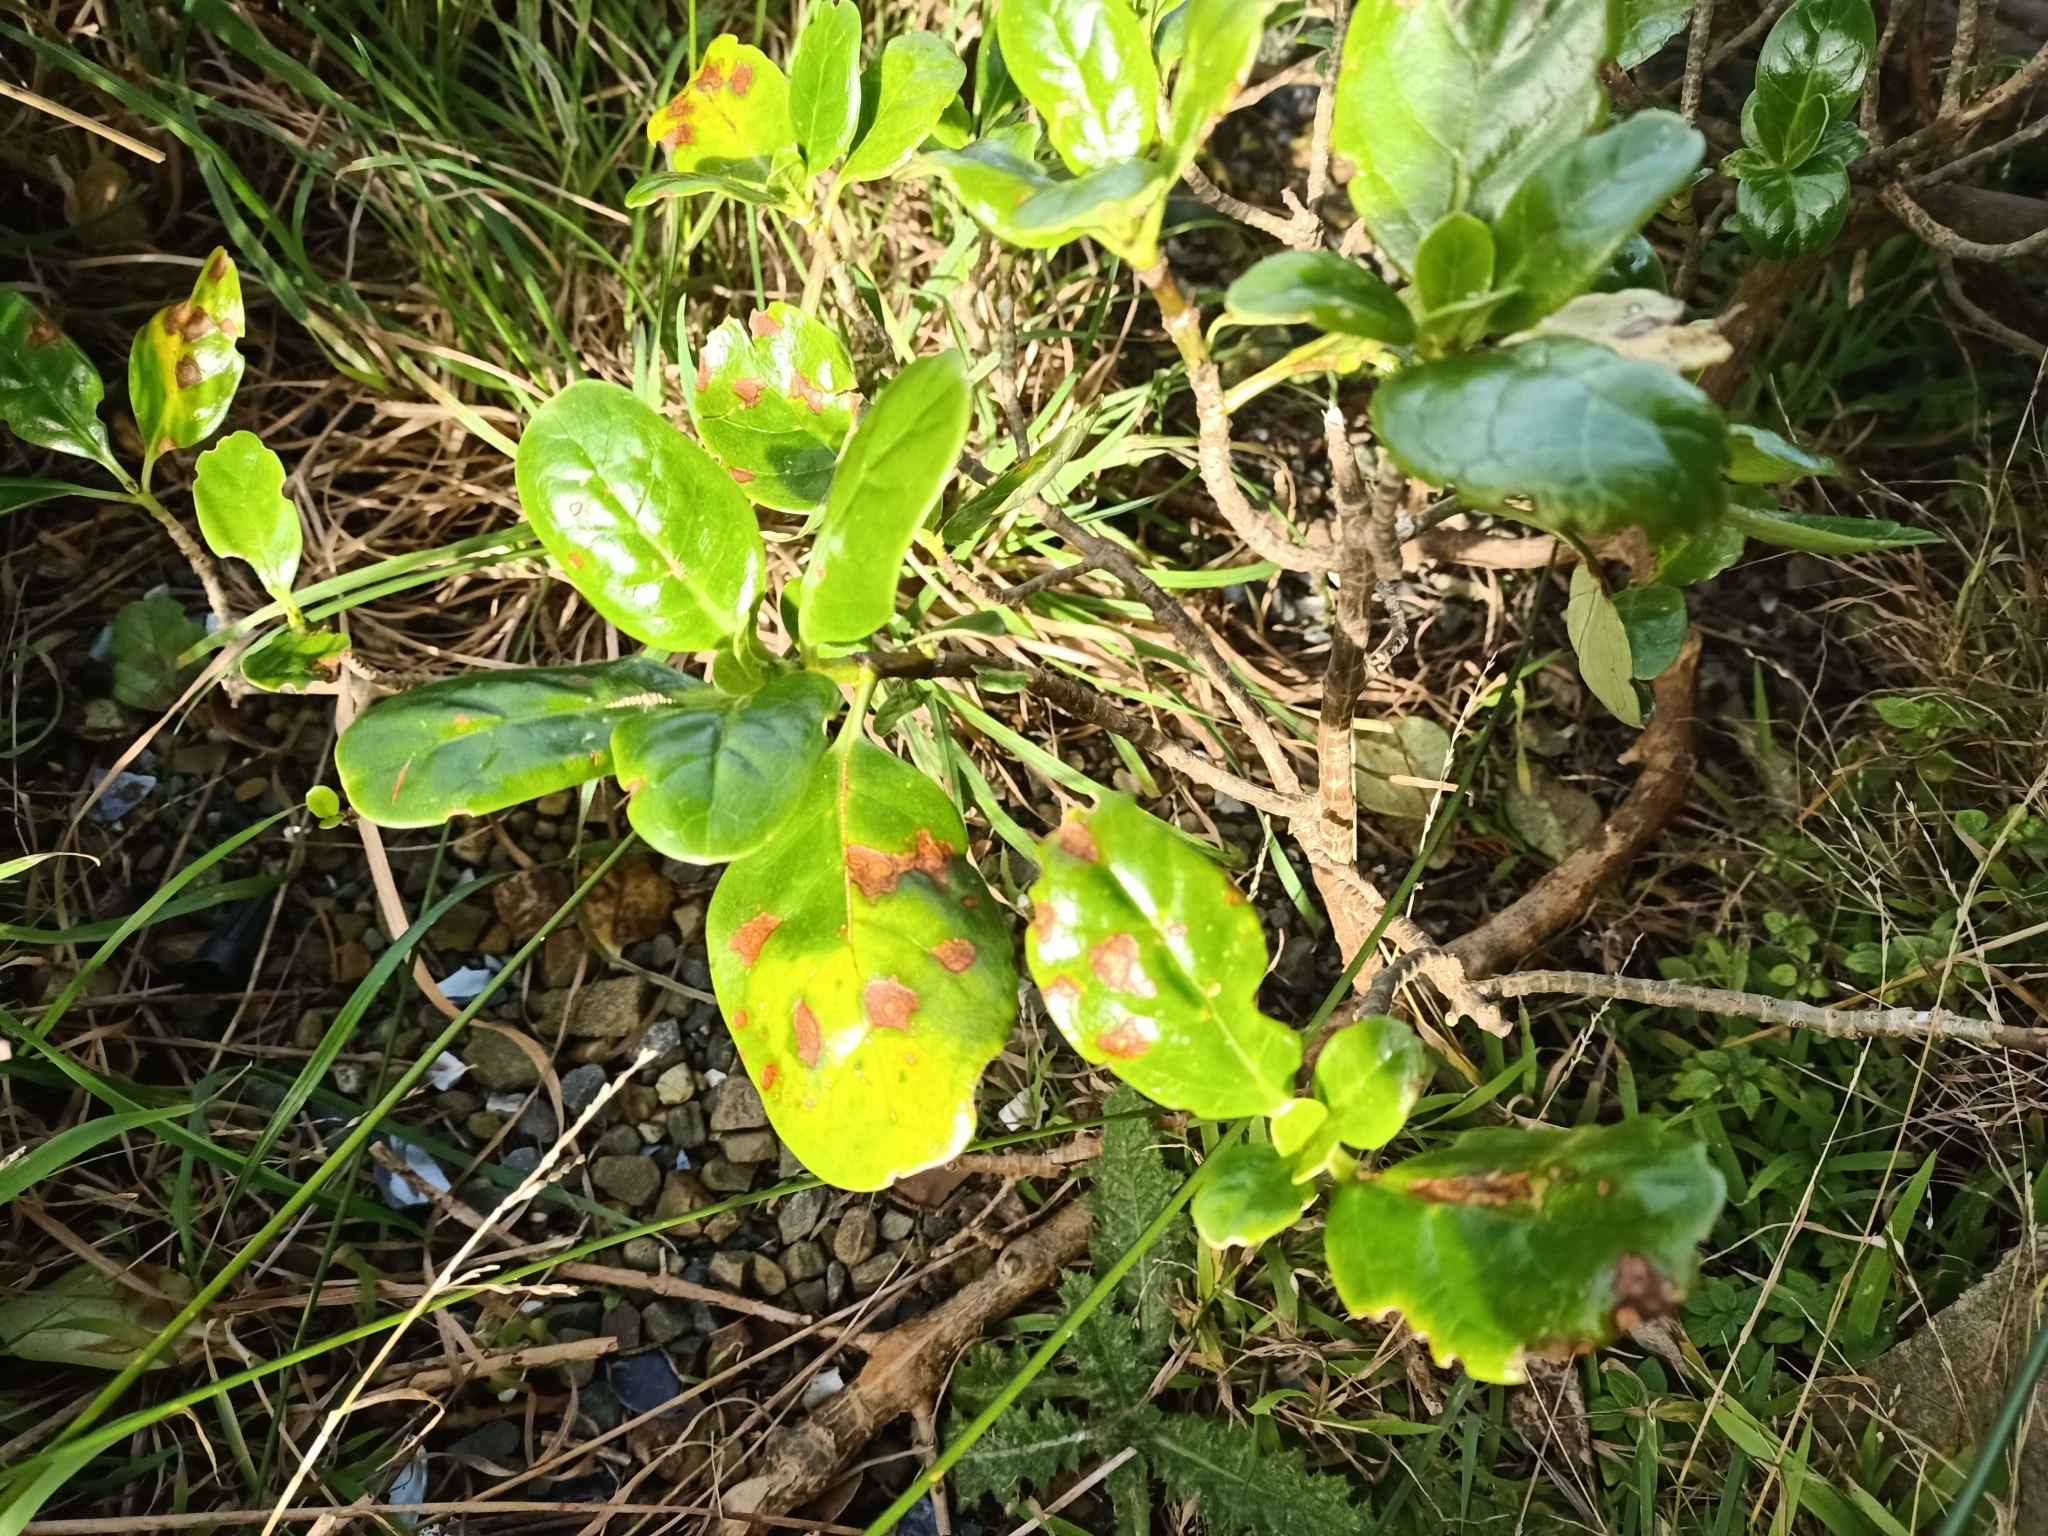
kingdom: Plantae
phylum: Tracheophyta
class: Magnoliopsida
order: Gentianales
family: Rubiaceae
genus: Coprosma
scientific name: Coprosma repens
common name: Tree bedstraw
